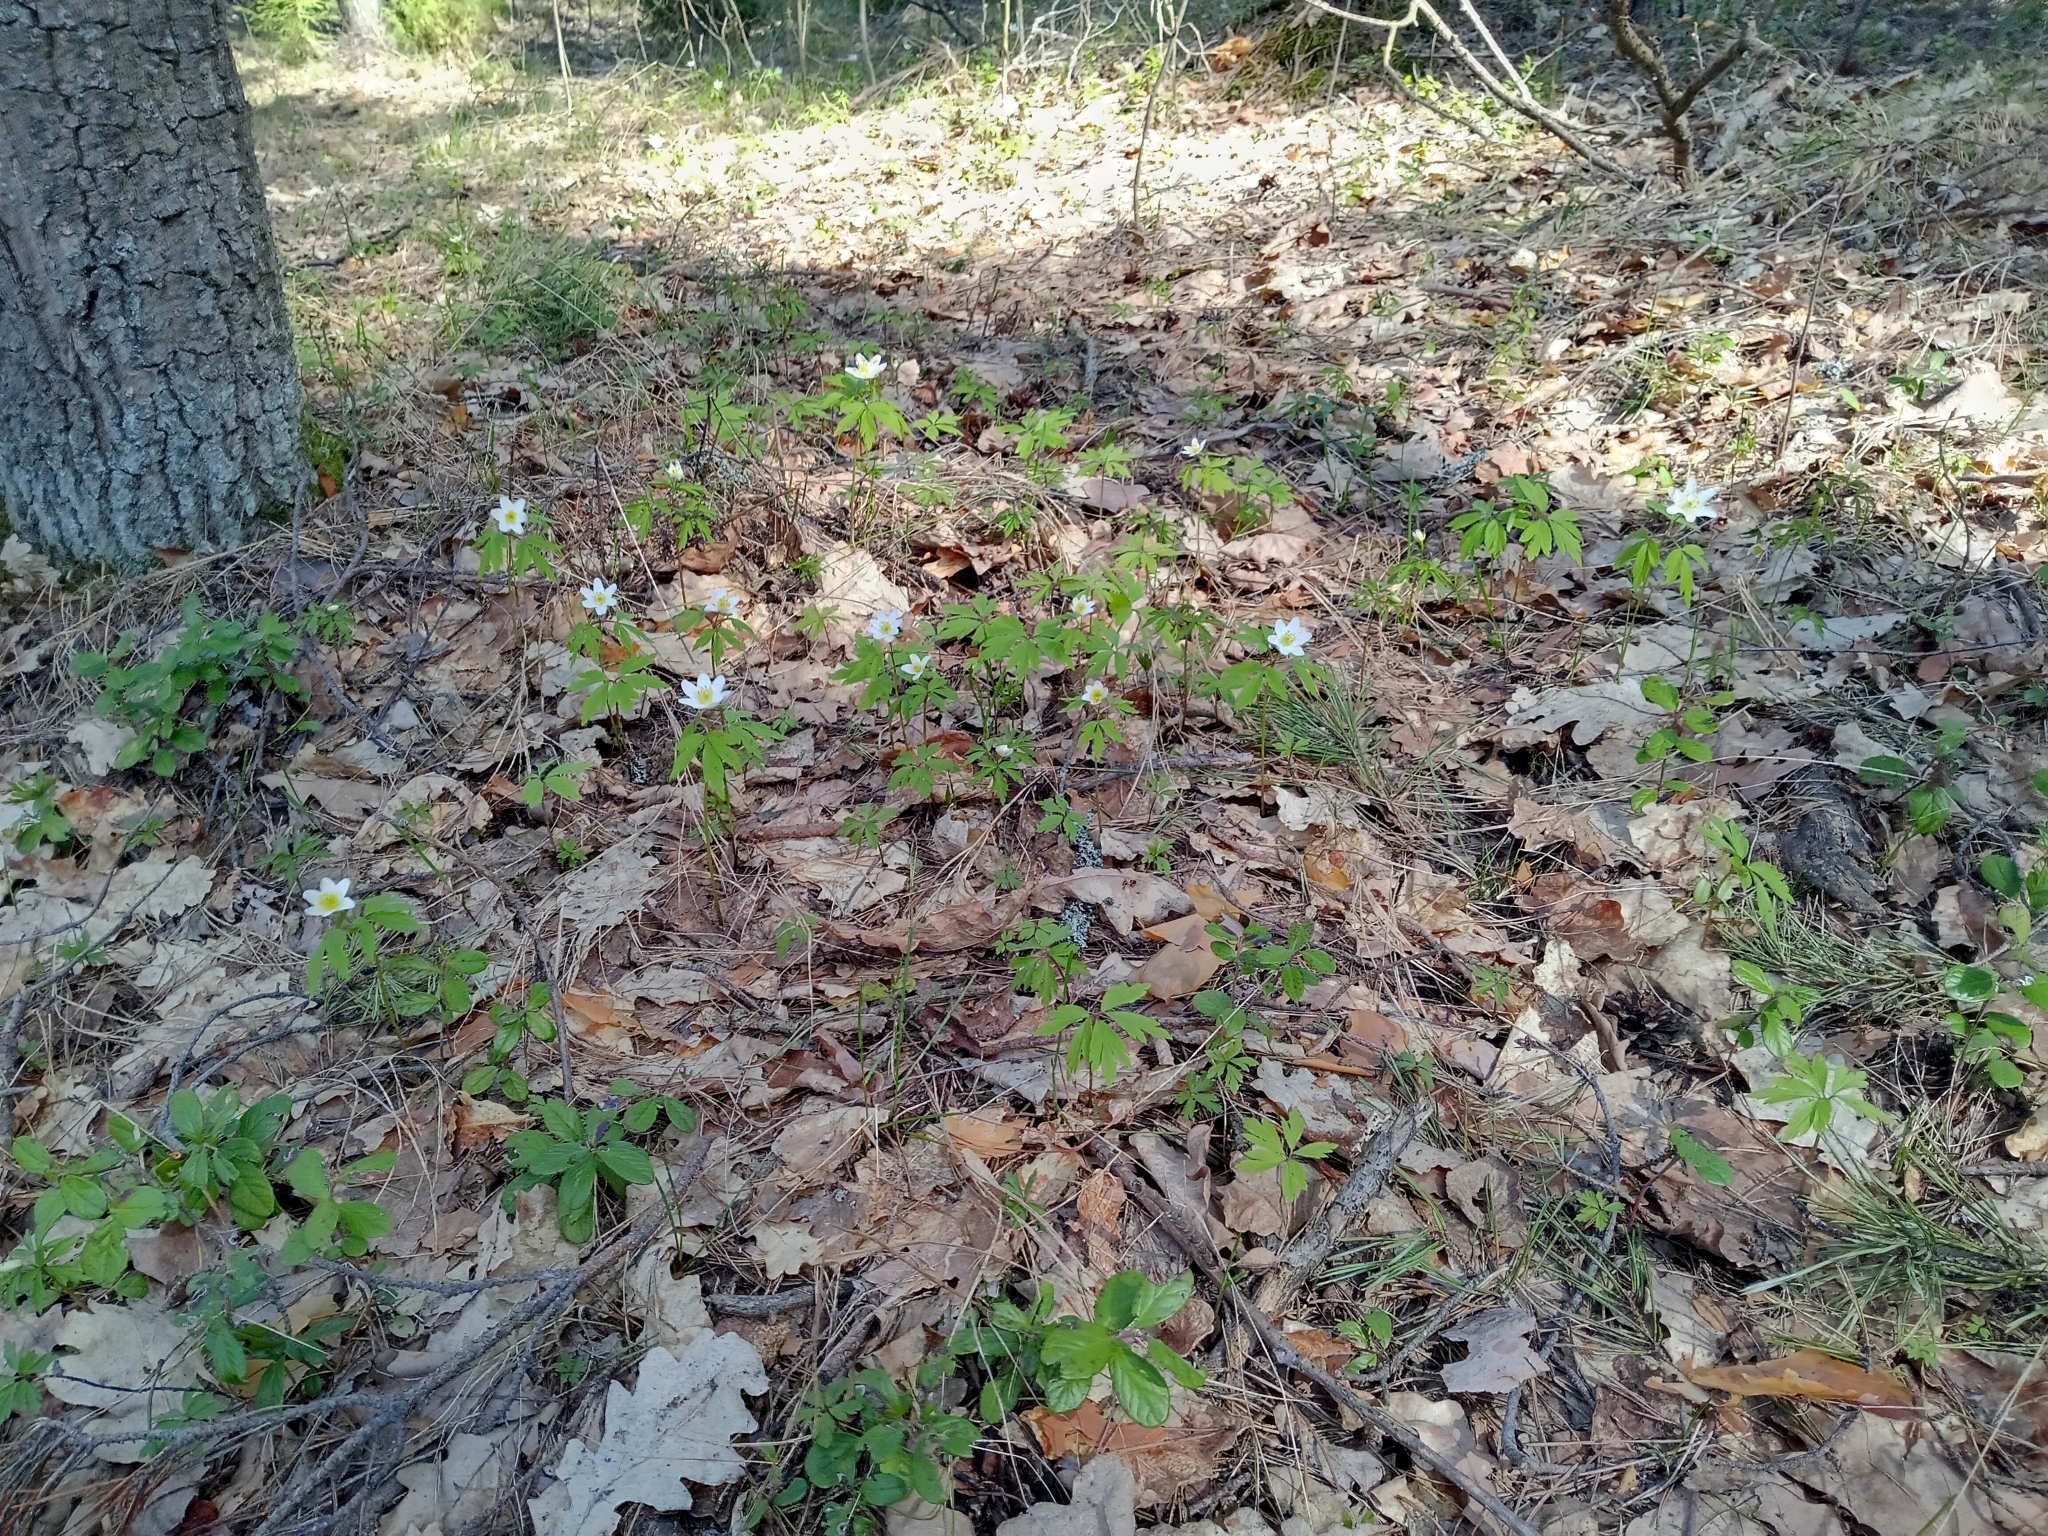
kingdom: Plantae
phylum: Tracheophyta
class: Magnoliopsida
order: Ranunculales
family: Ranunculaceae
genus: Anemone
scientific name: Anemone nemorosa
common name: Wood anemone
